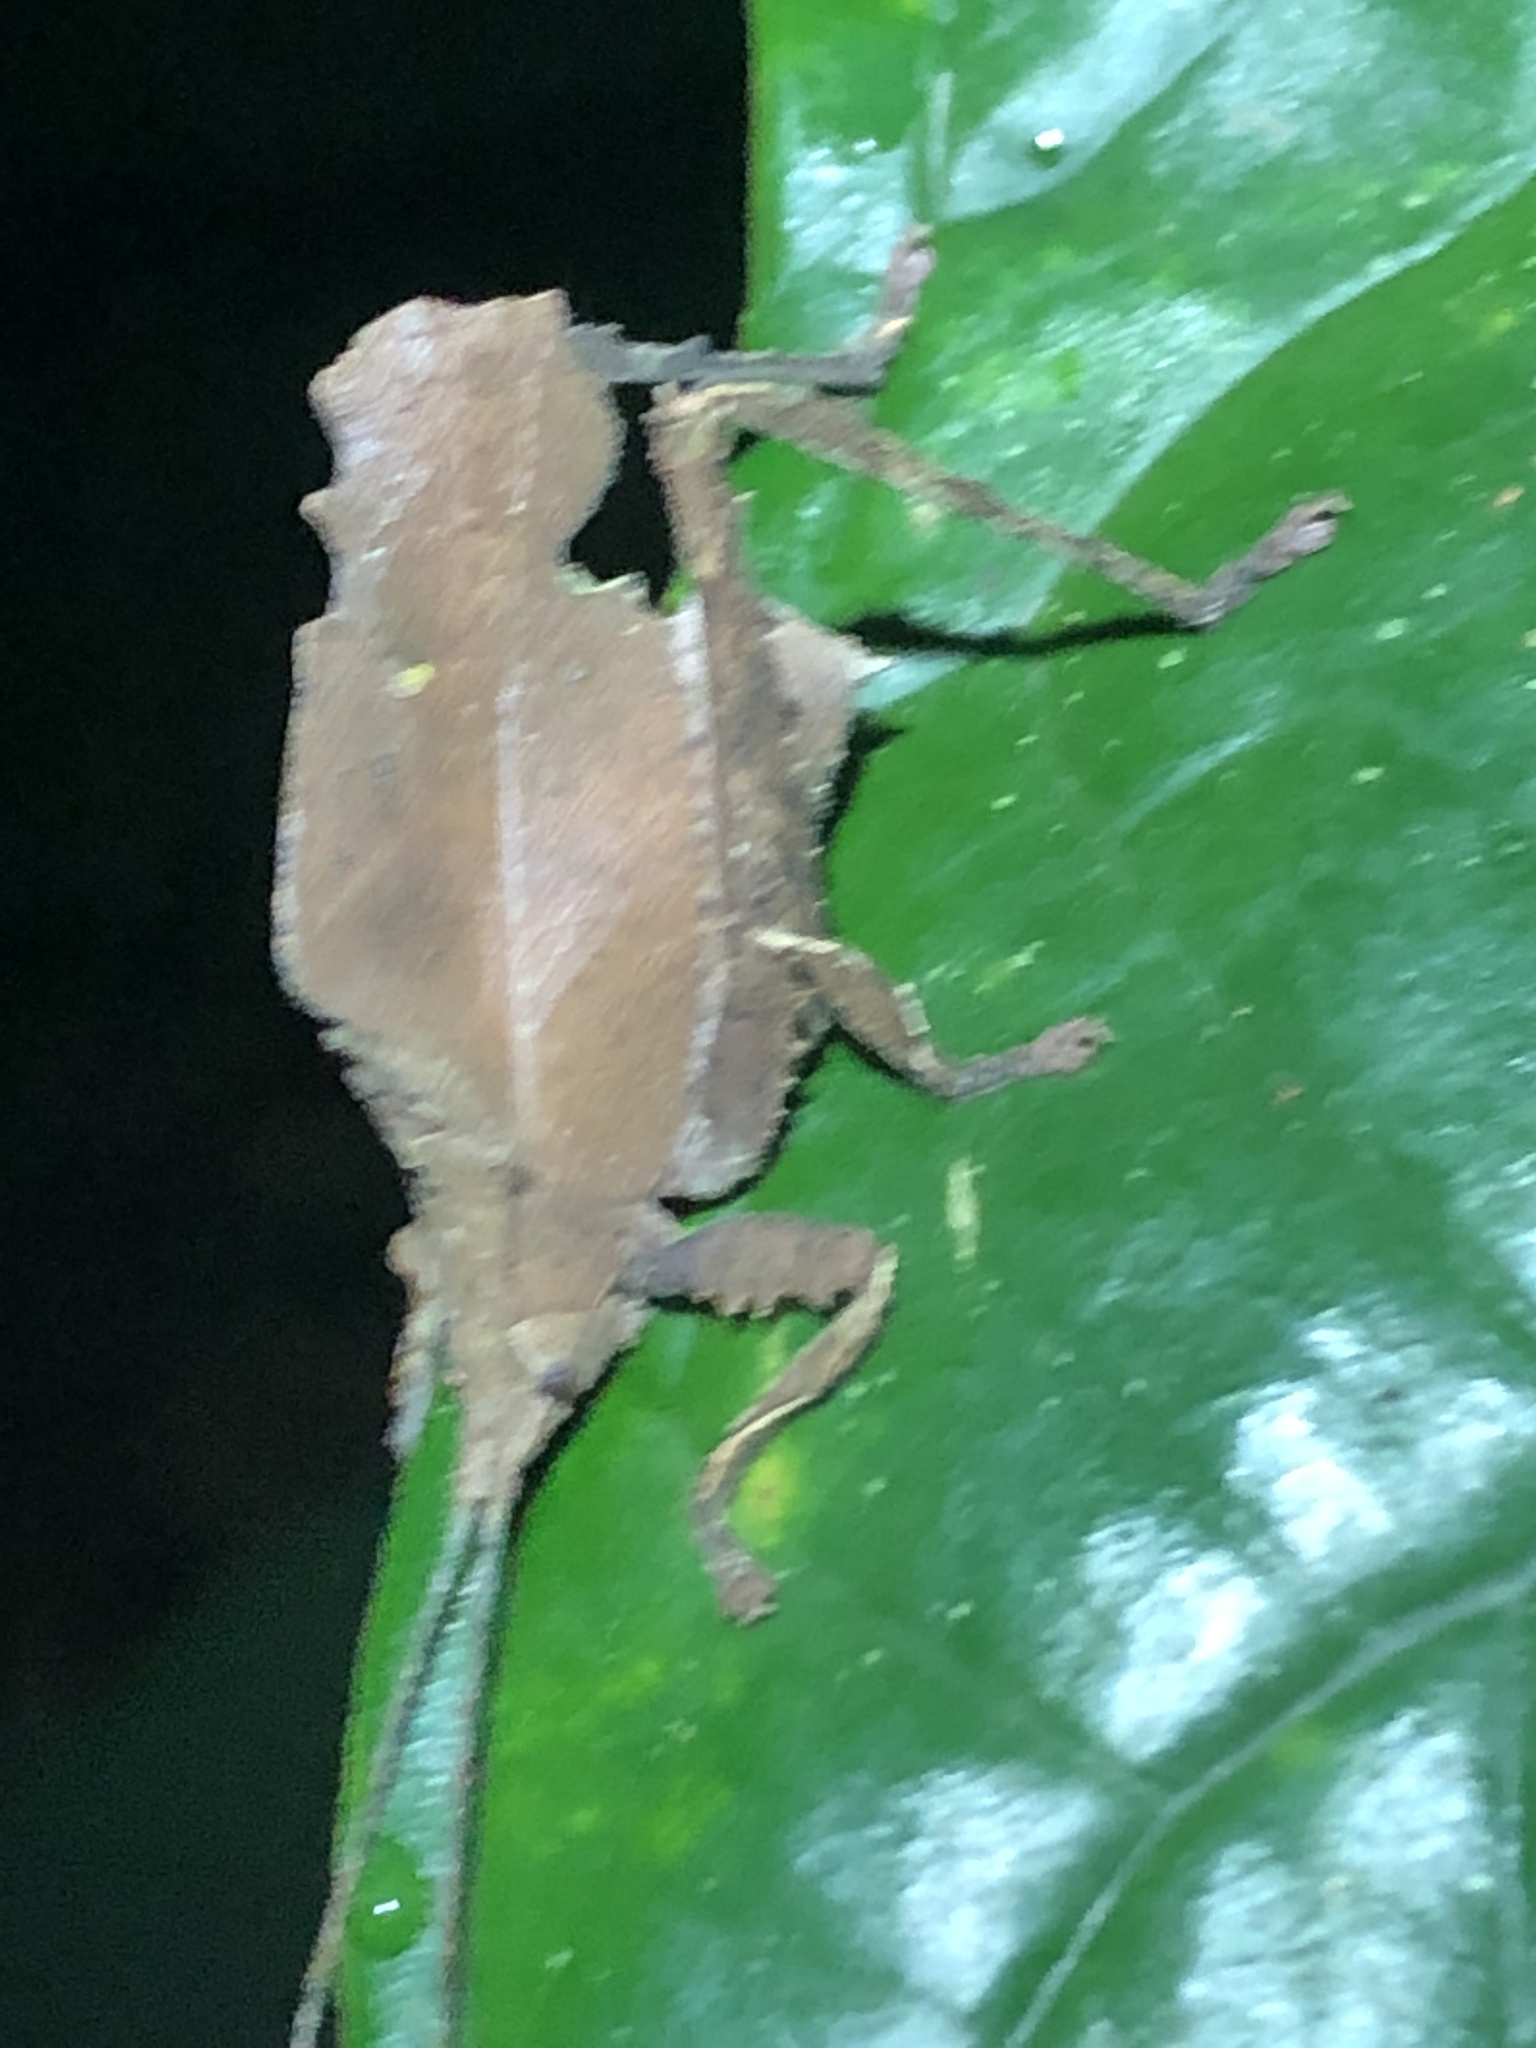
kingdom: Animalia
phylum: Arthropoda
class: Insecta
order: Orthoptera
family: Tettigoniidae
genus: Typophyllum
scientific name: Typophyllum curtum
